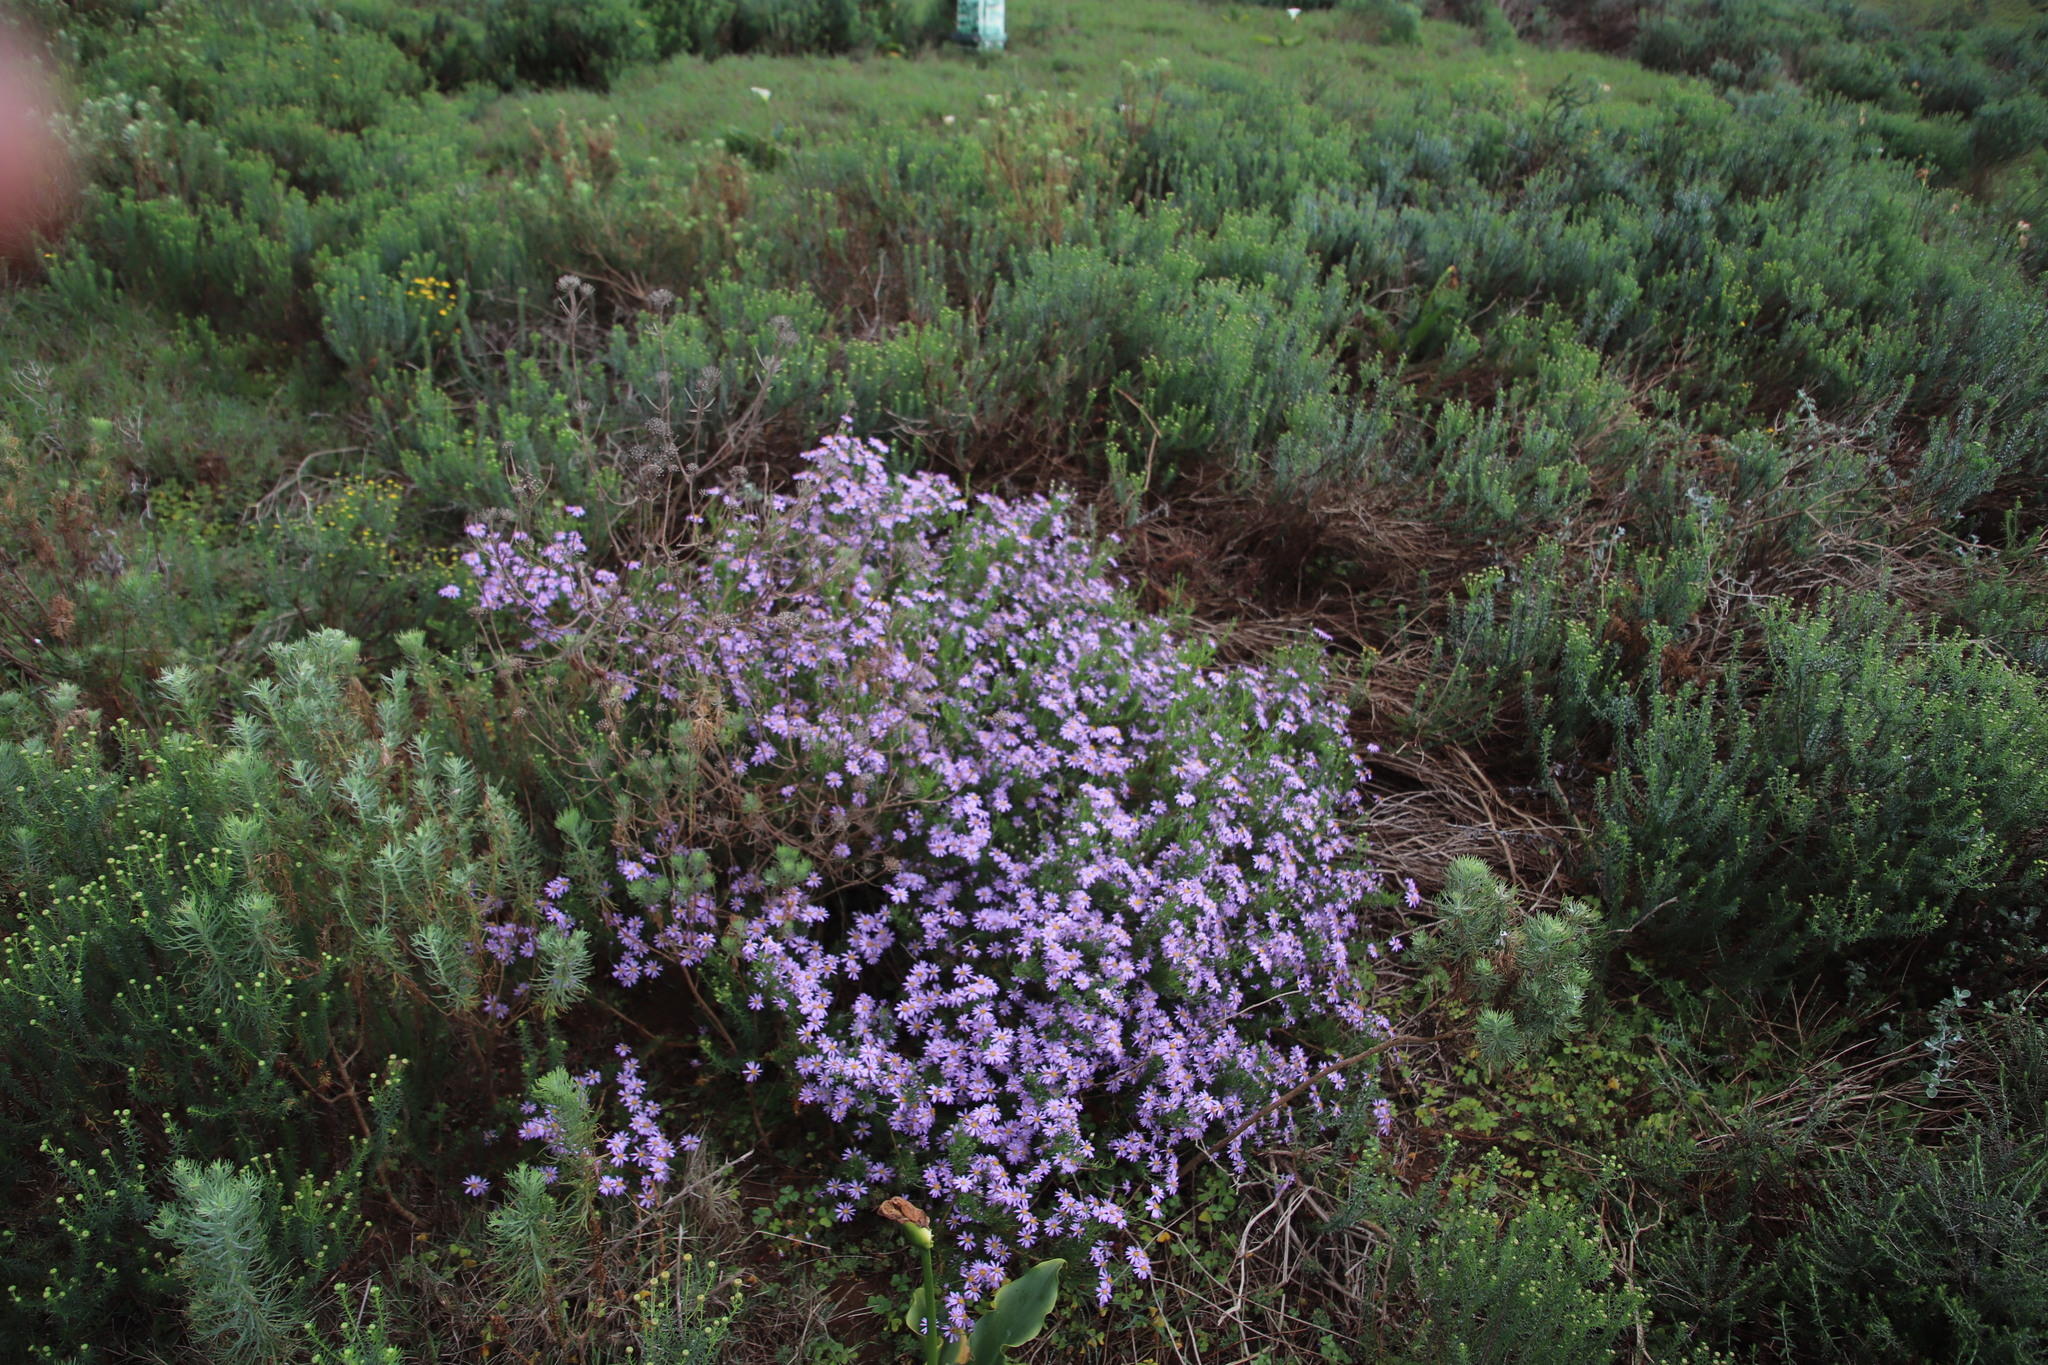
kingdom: Plantae
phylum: Tracheophyta
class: Magnoliopsida
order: Asterales
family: Asteraceae
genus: Felicia
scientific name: Felicia fruticosa
